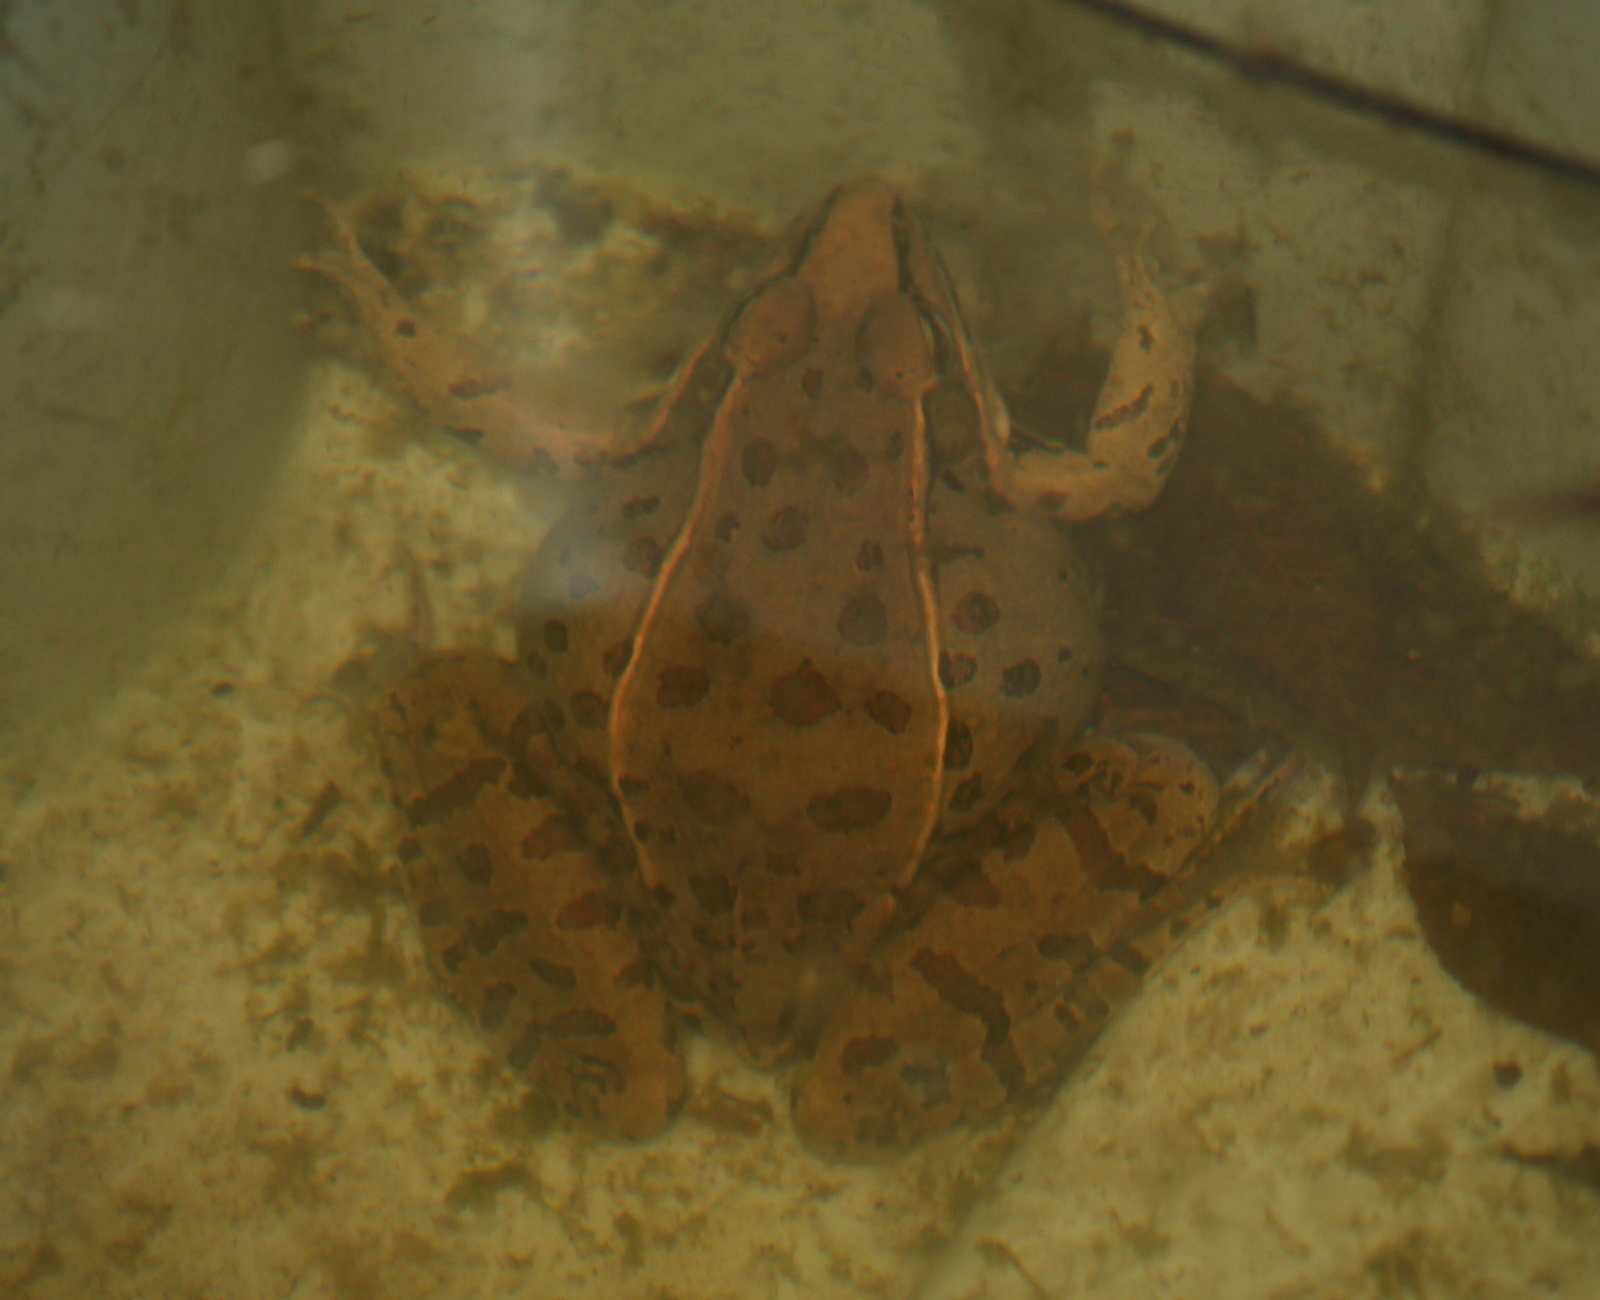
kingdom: Animalia
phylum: Chordata
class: Amphibia
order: Anura
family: Ranidae
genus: Lithobates
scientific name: Lithobates sphenocephalus
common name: Southern leopard frog
